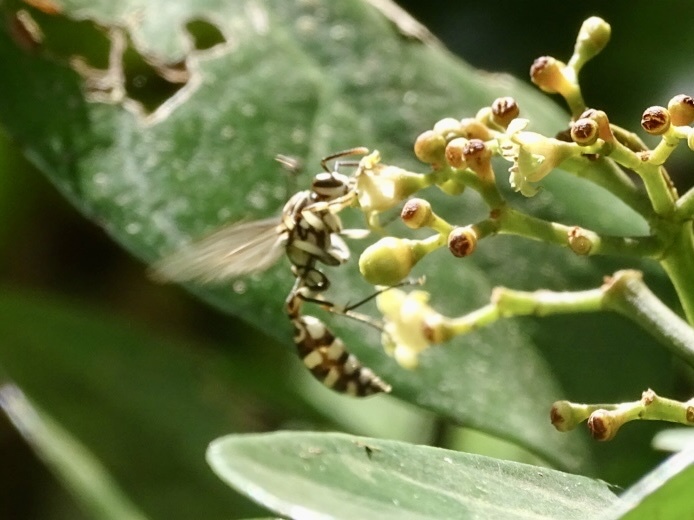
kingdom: Animalia
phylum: Arthropoda
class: Insecta
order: Hymenoptera
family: Vespidae
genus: Parapolybia
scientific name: Parapolybia nodosa
